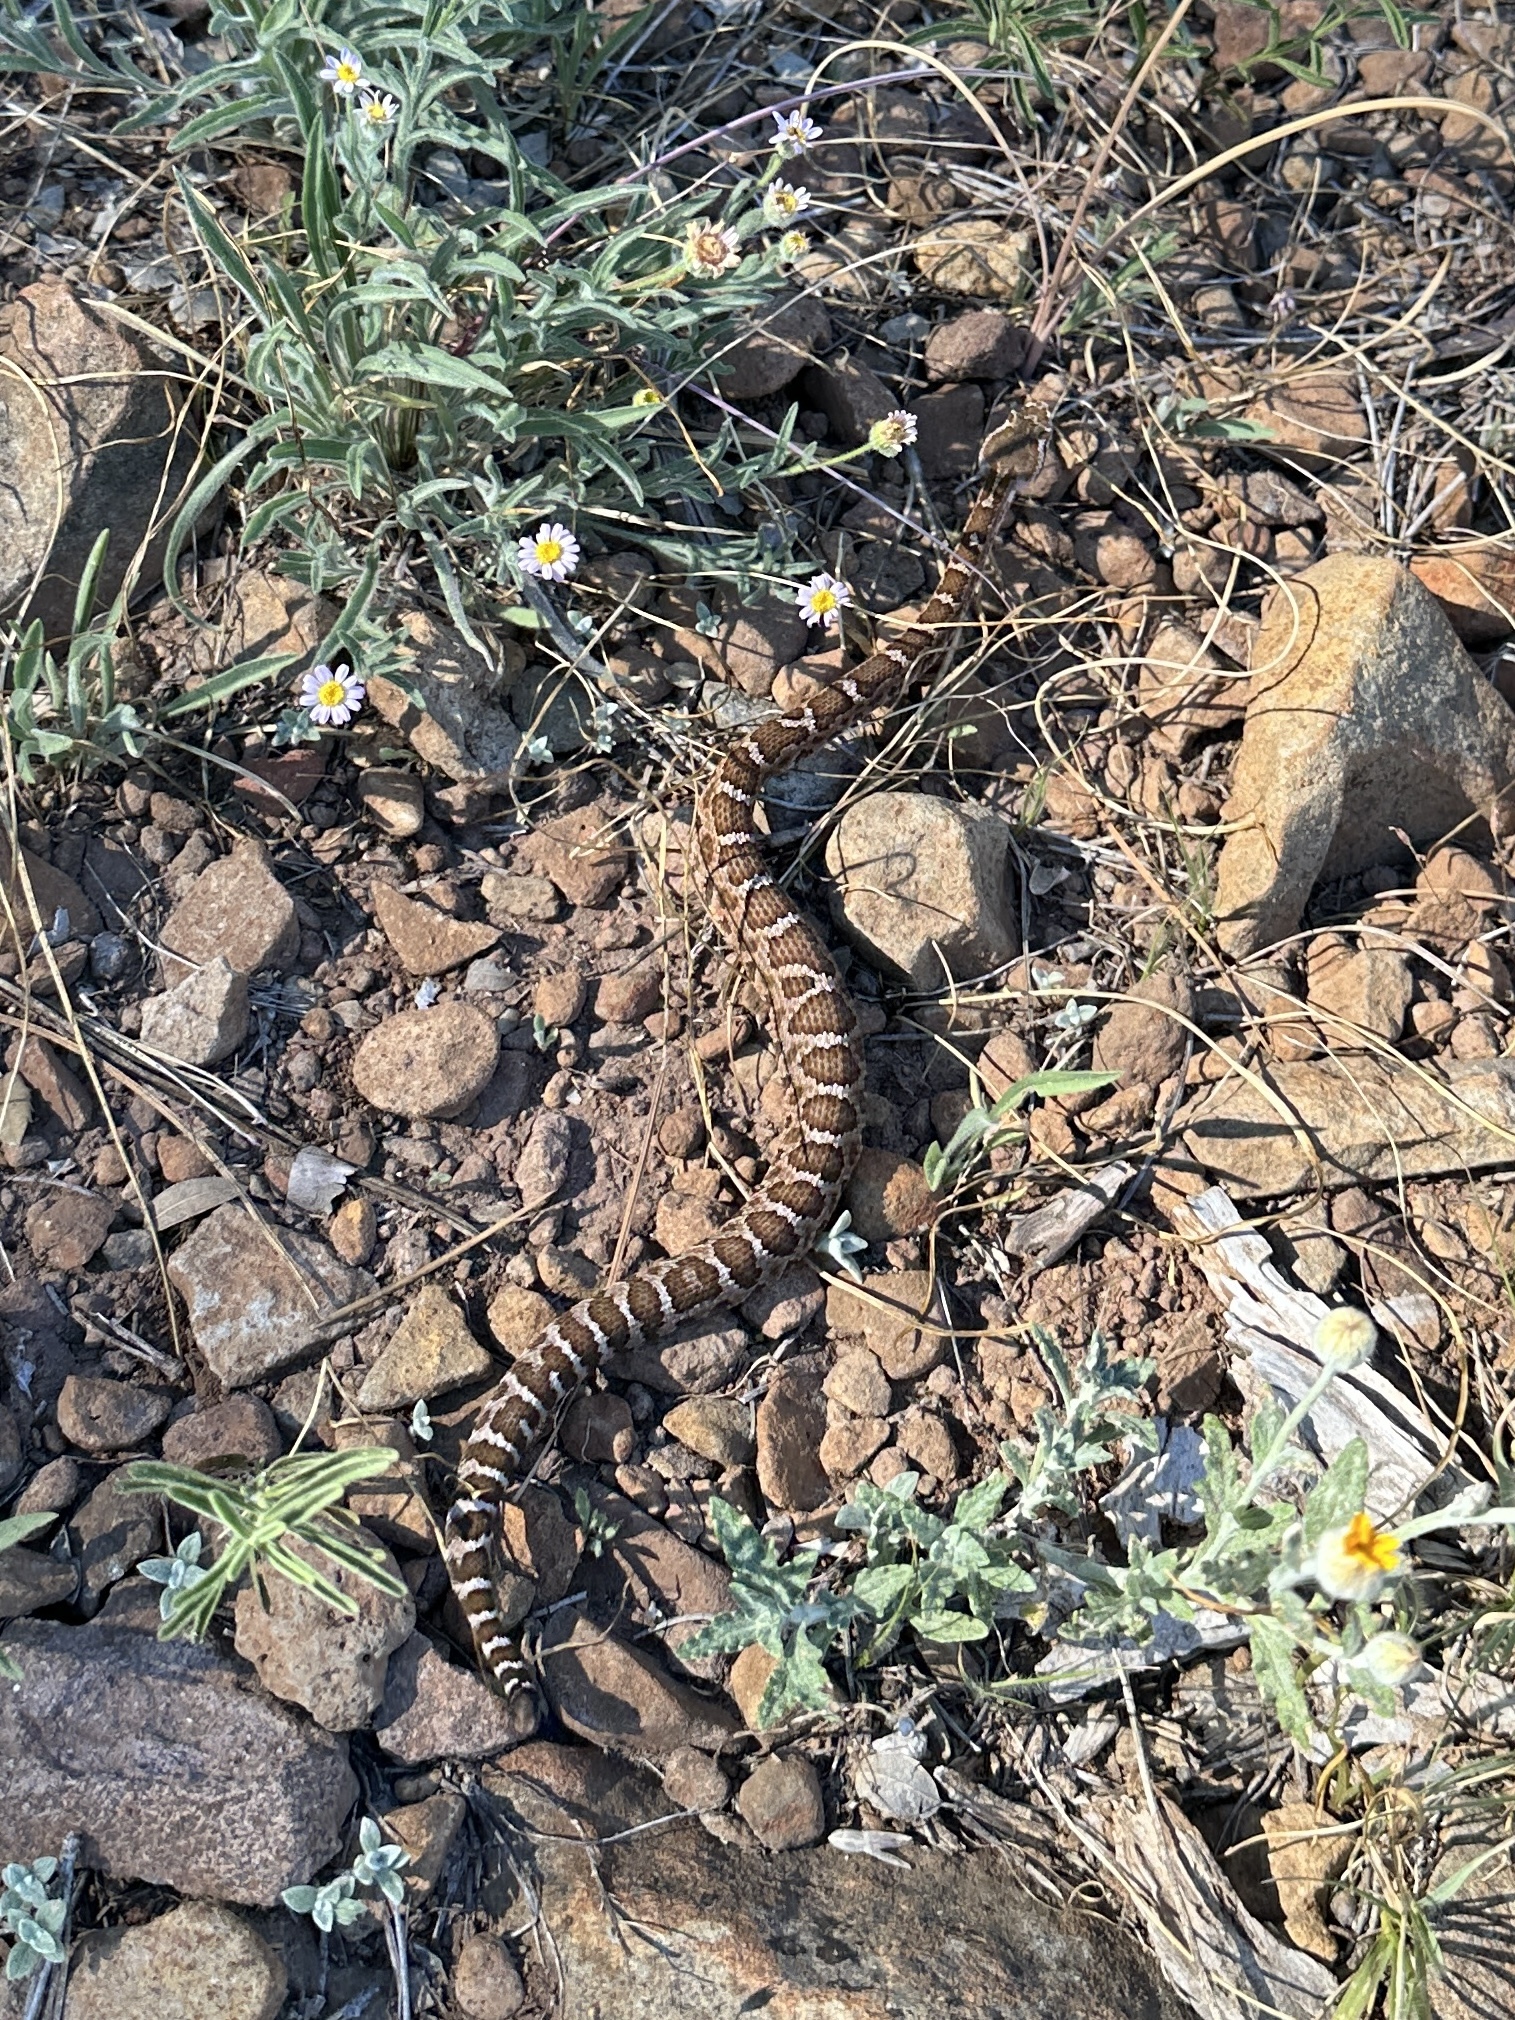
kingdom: Animalia
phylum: Chordata
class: Squamata
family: Viperidae
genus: Crotalus
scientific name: Crotalus oreganus
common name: Abyssus
